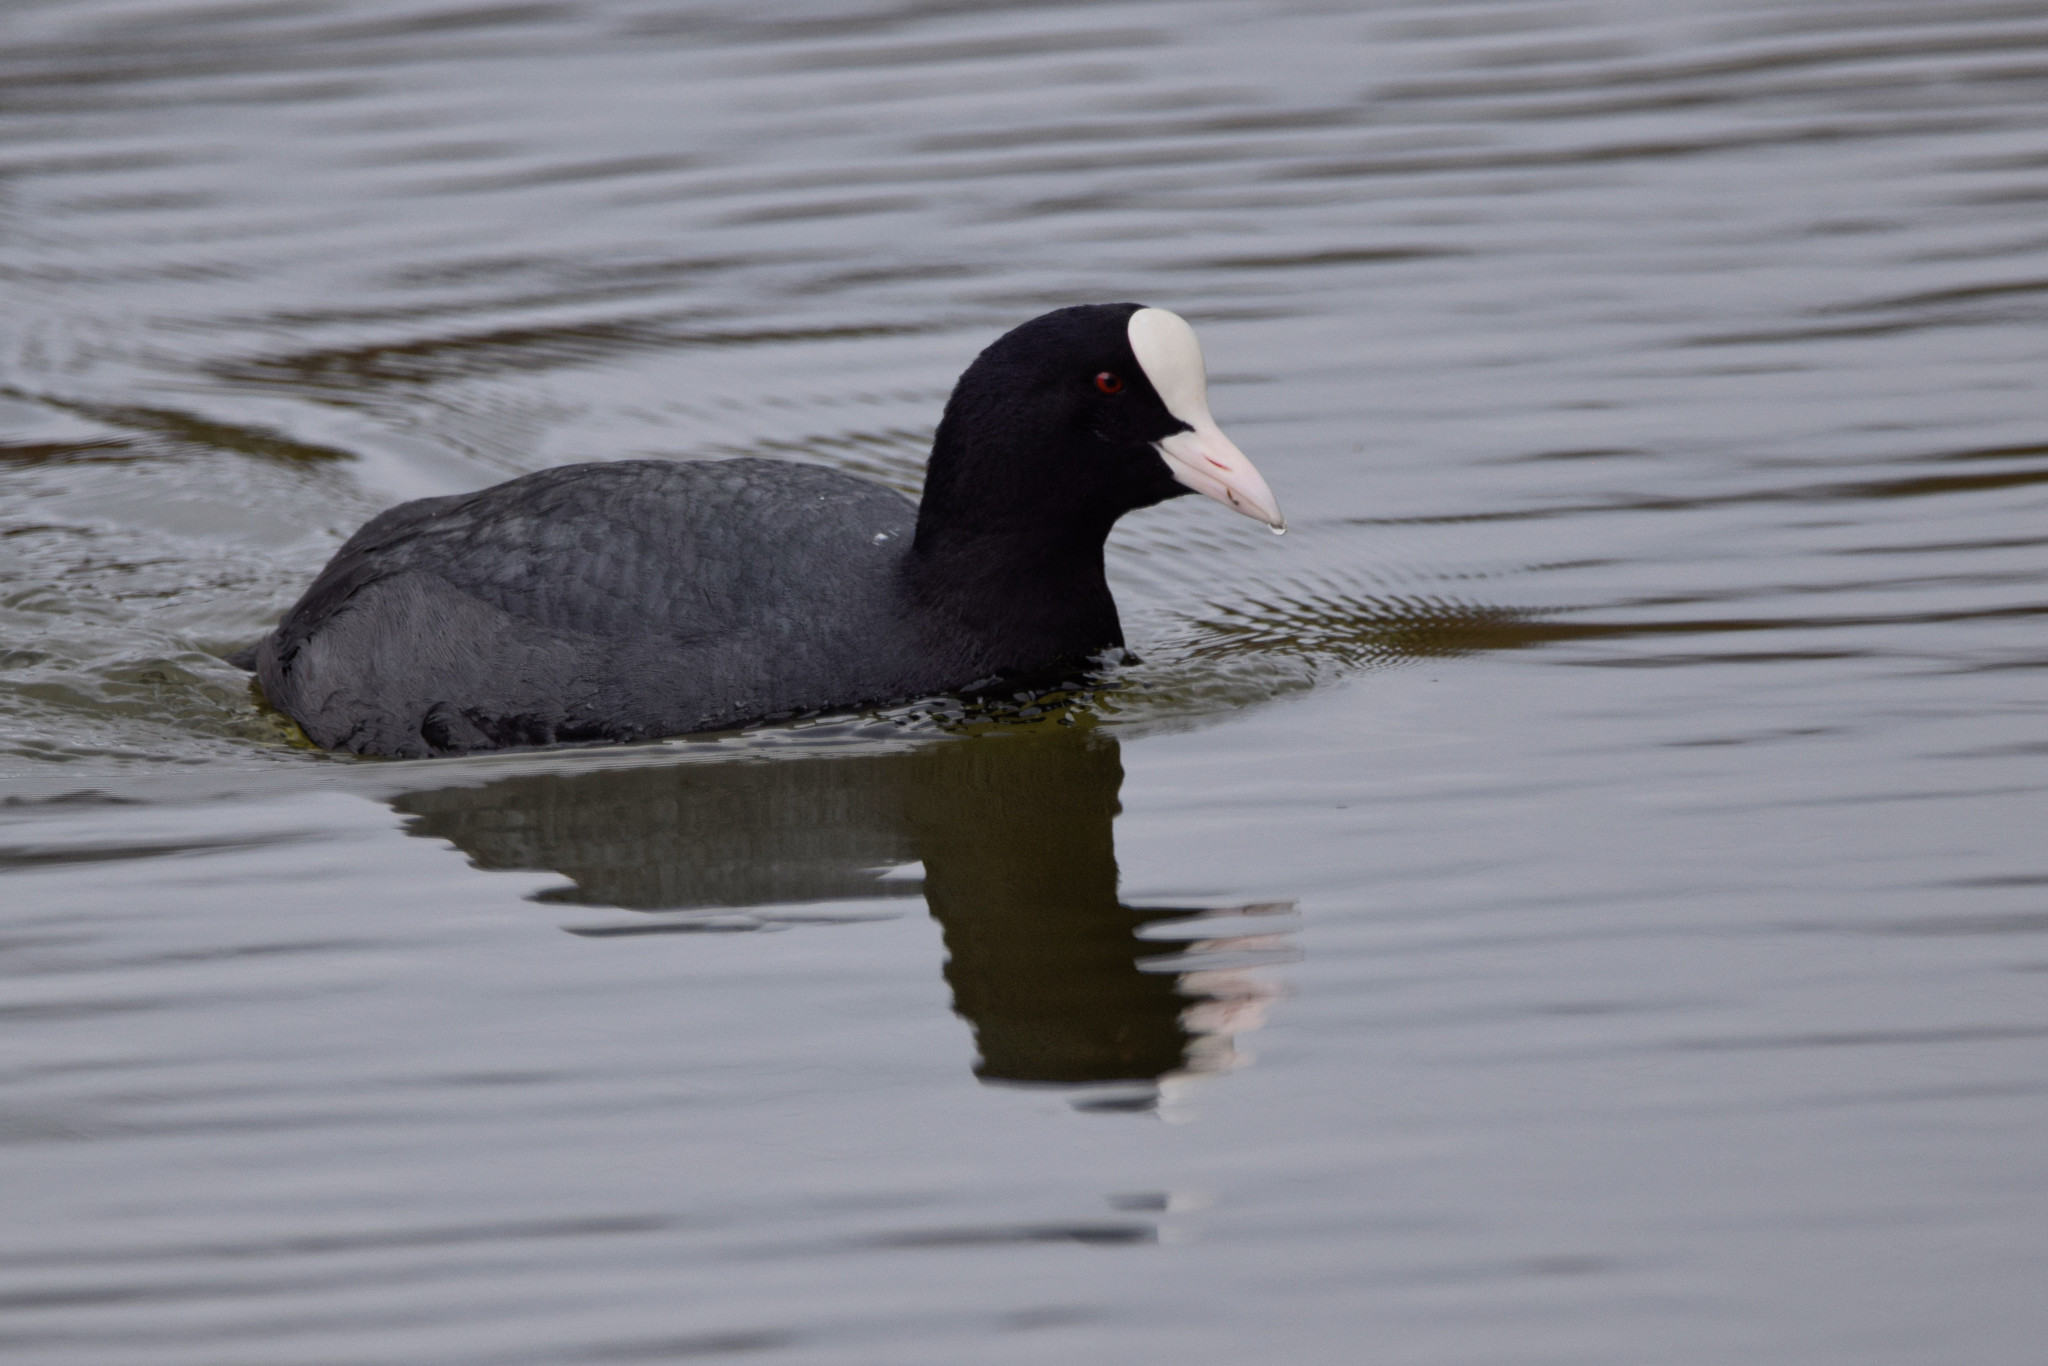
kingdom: Animalia
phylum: Chordata
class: Aves
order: Gruiformes
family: Rallidae
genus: Fulica
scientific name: Fulica atra
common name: Eurasian coot
